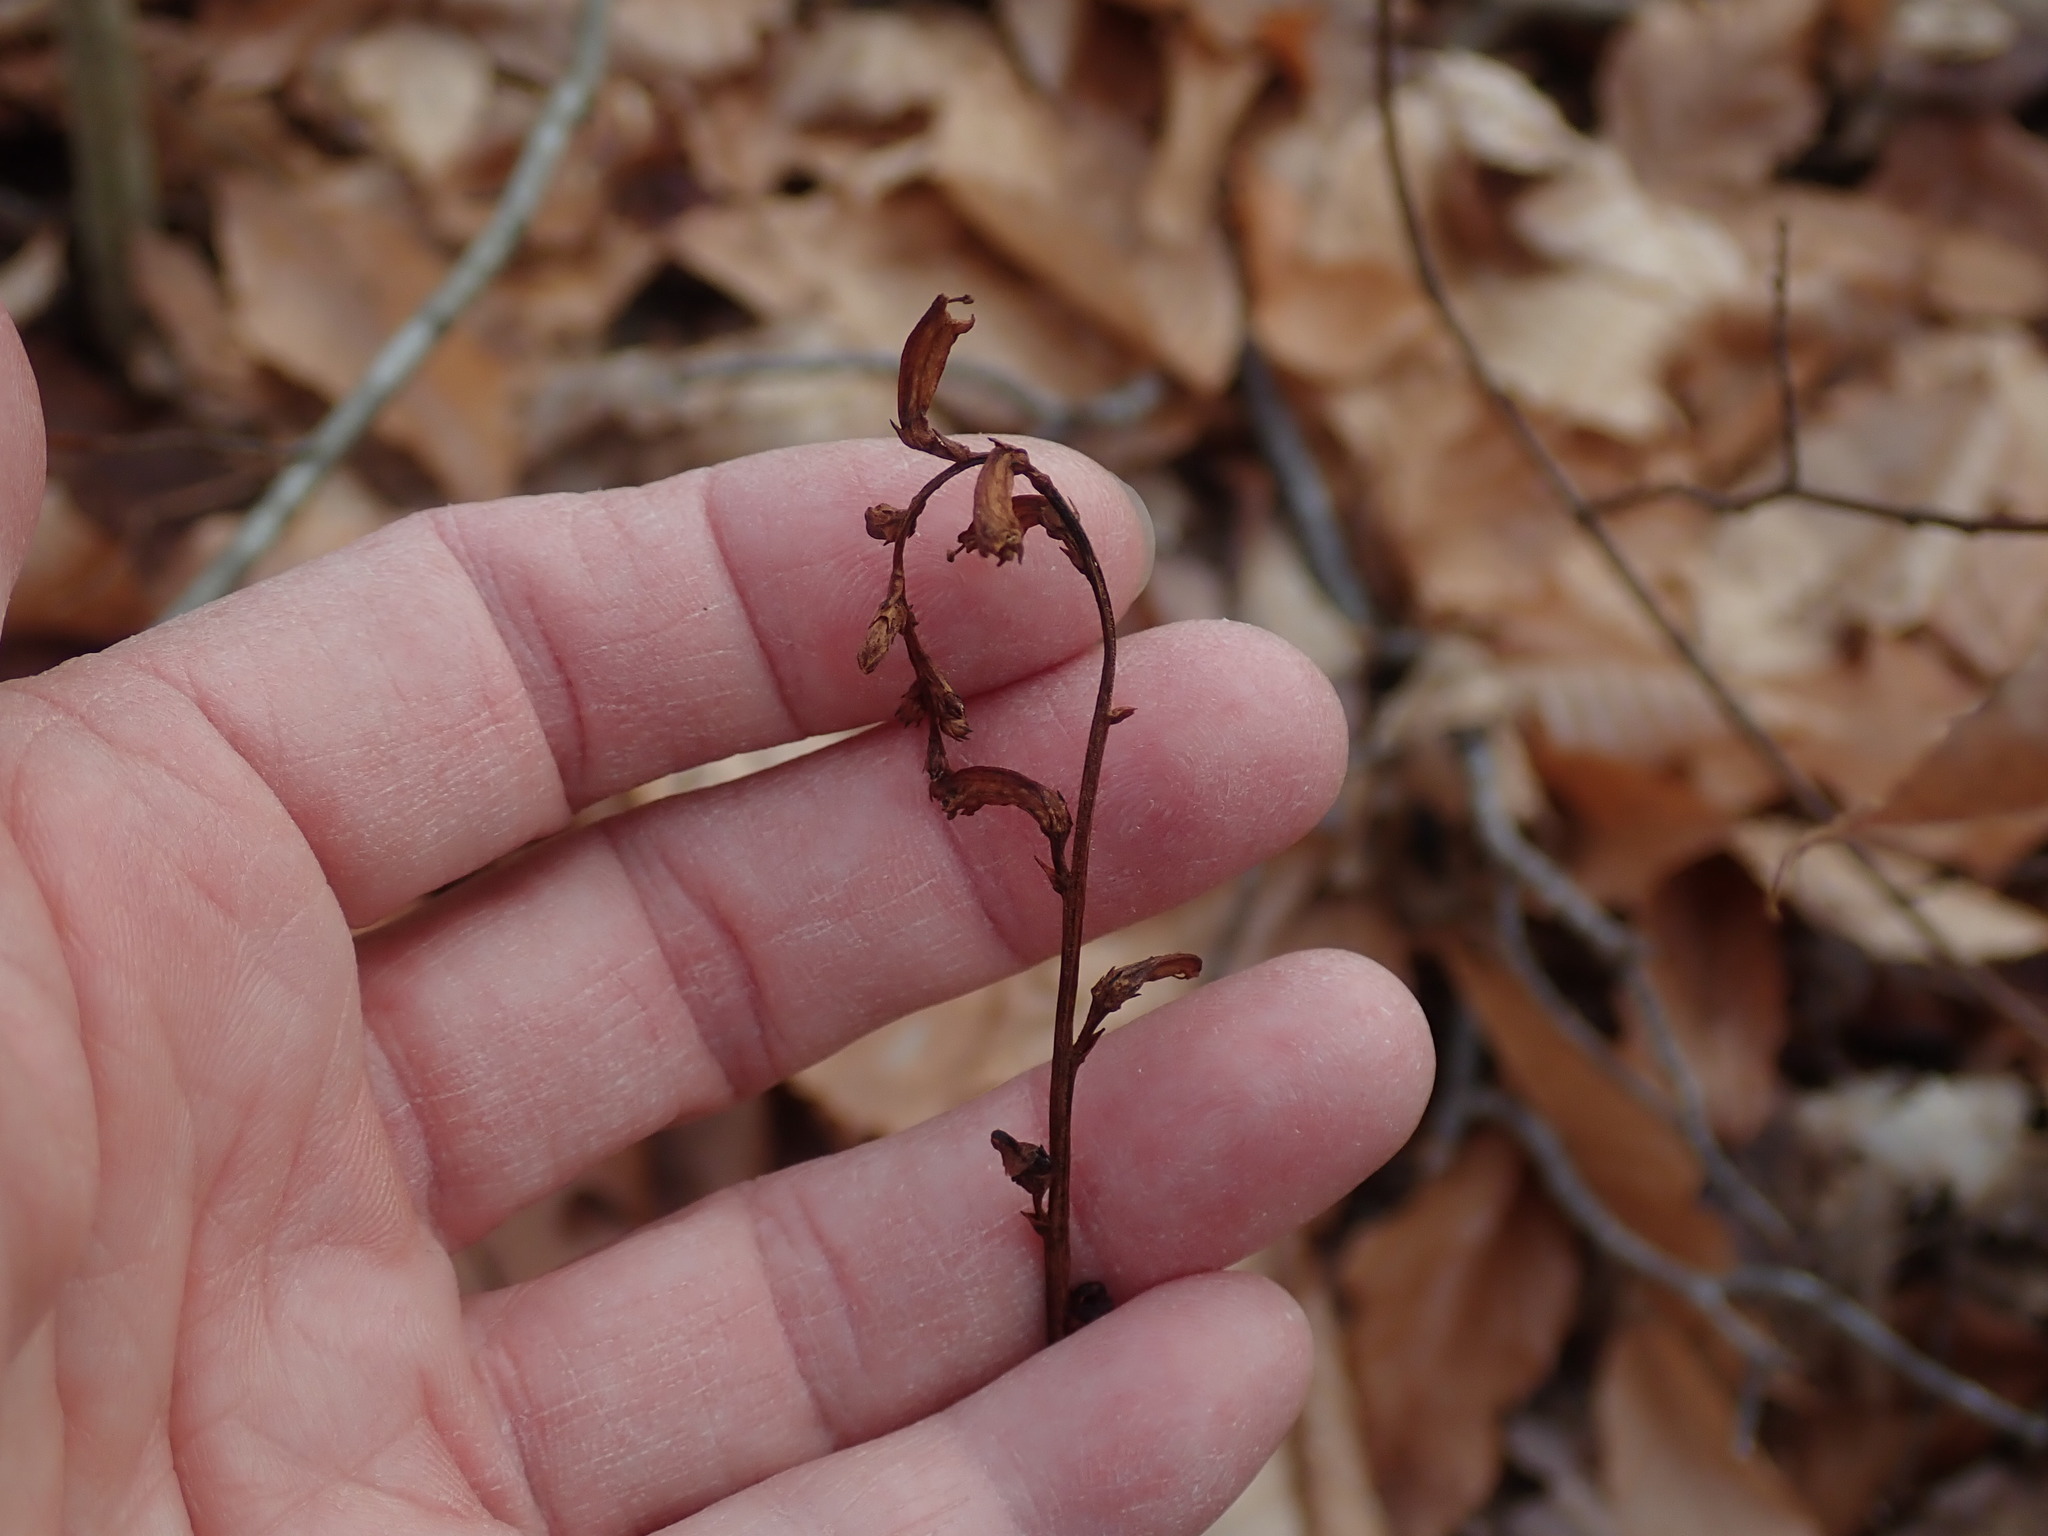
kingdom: Plantae
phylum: Tracheophyta
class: Magnoliopsida
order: Lamiales
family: Orobanchaceae
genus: Epifagus
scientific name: Epifagus virginiana
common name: Beechdrops
